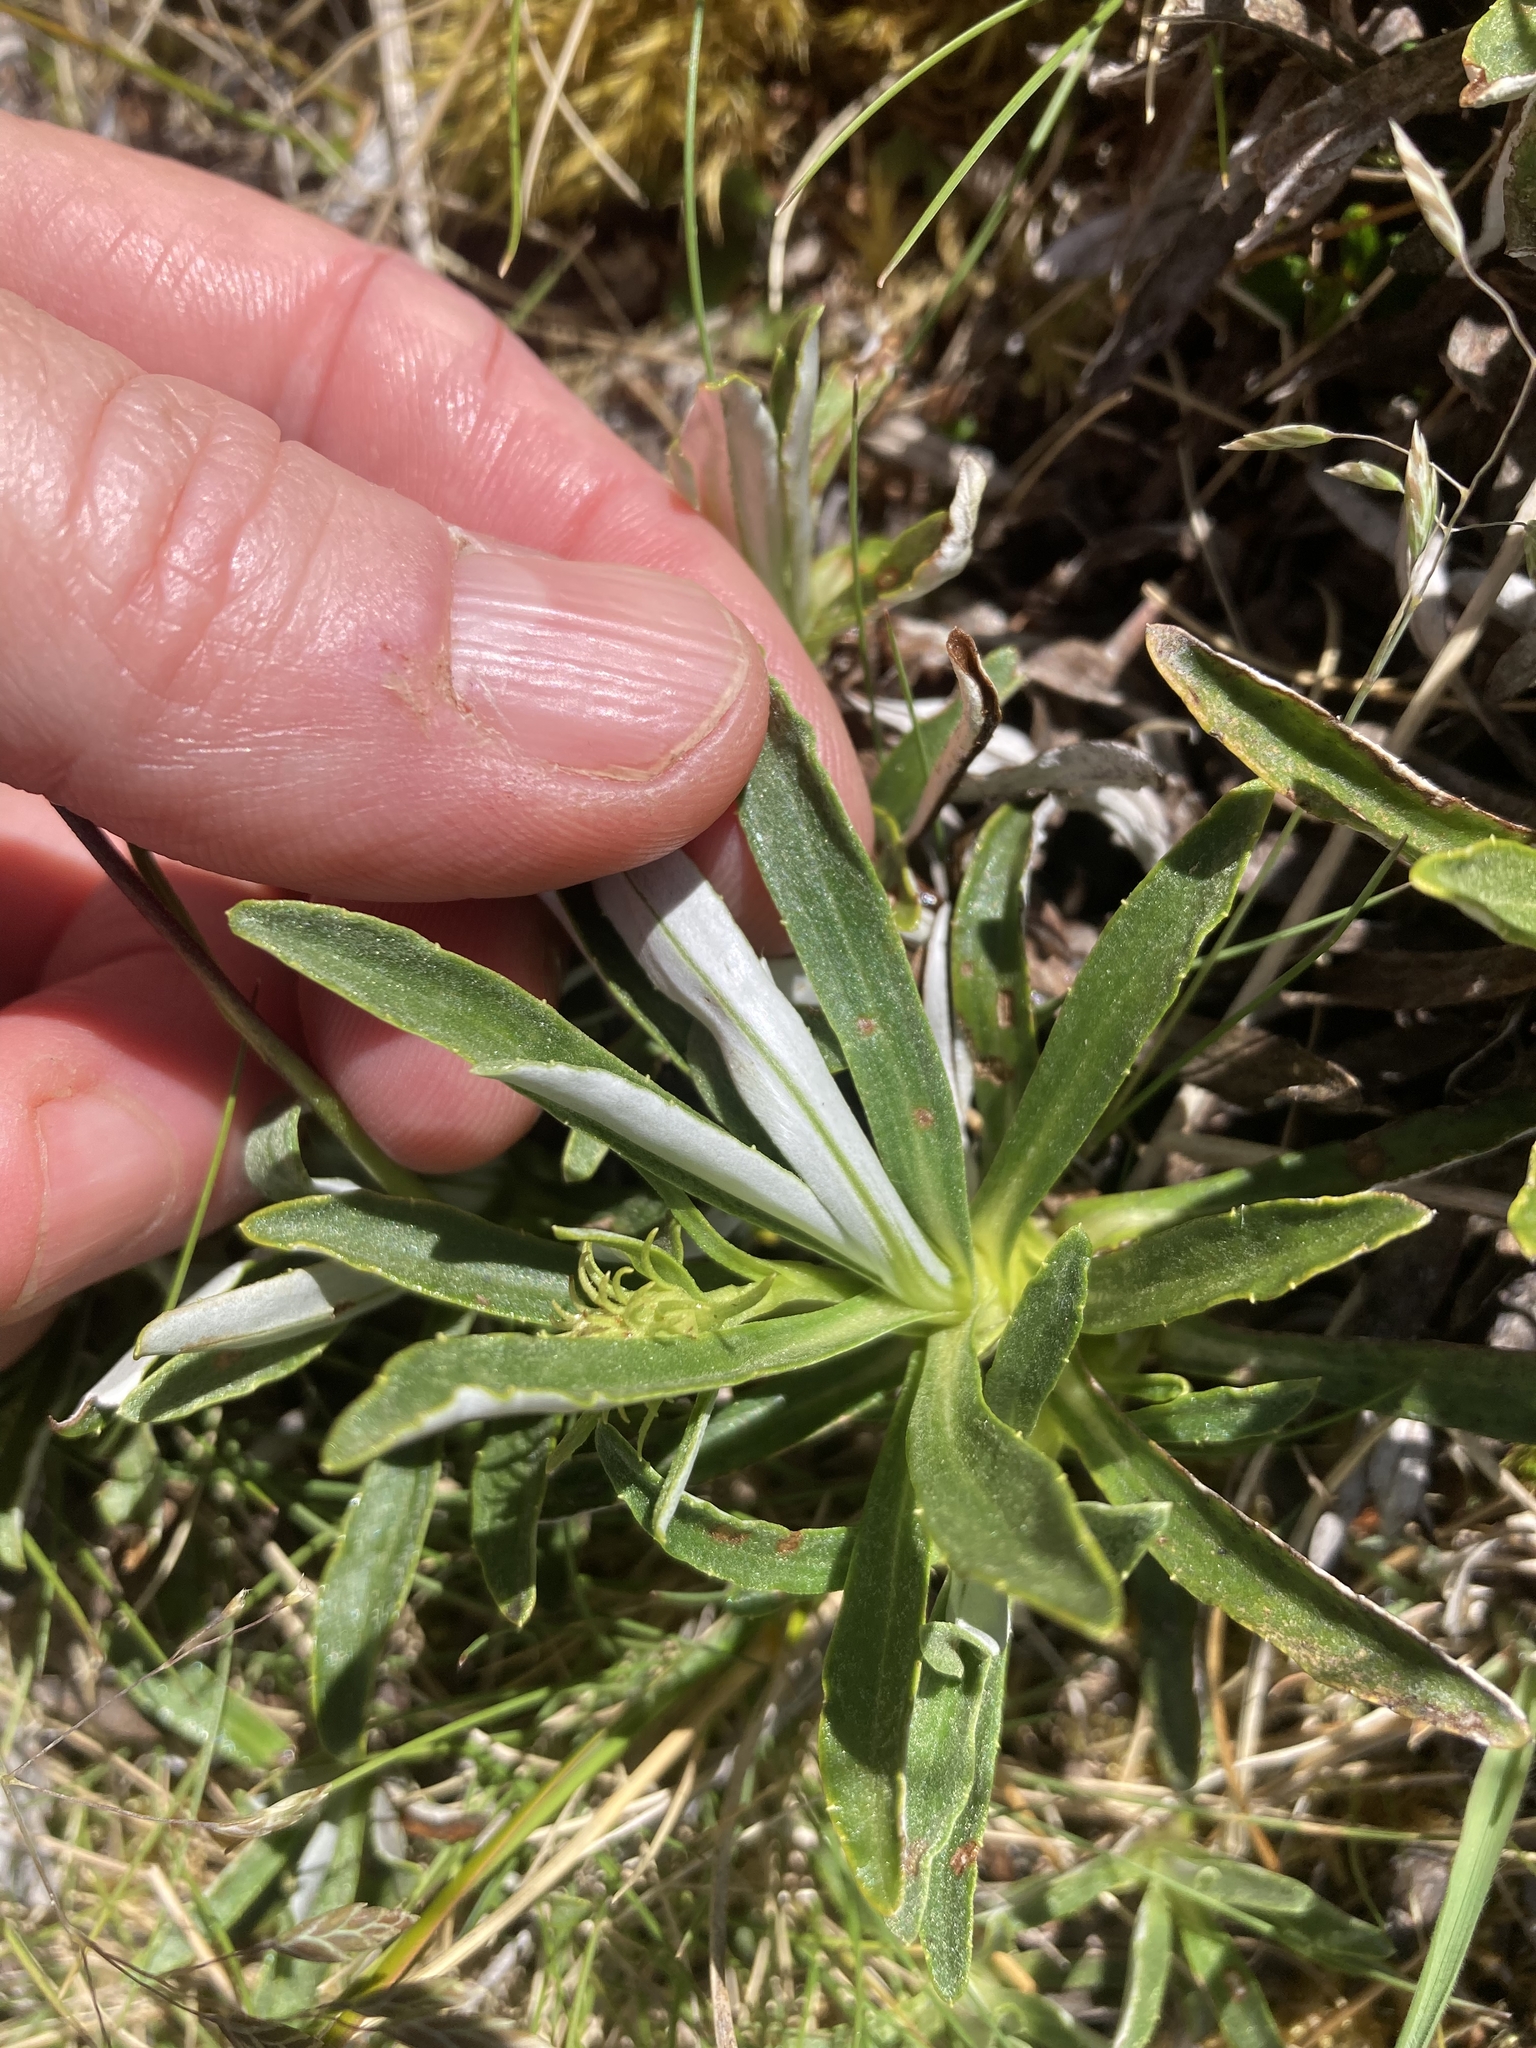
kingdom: Plantae
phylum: Tracheophyta
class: Magnoliopsida
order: Asterales
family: Asteraceae
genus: Celmisia
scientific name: Celmisia angustifolia
